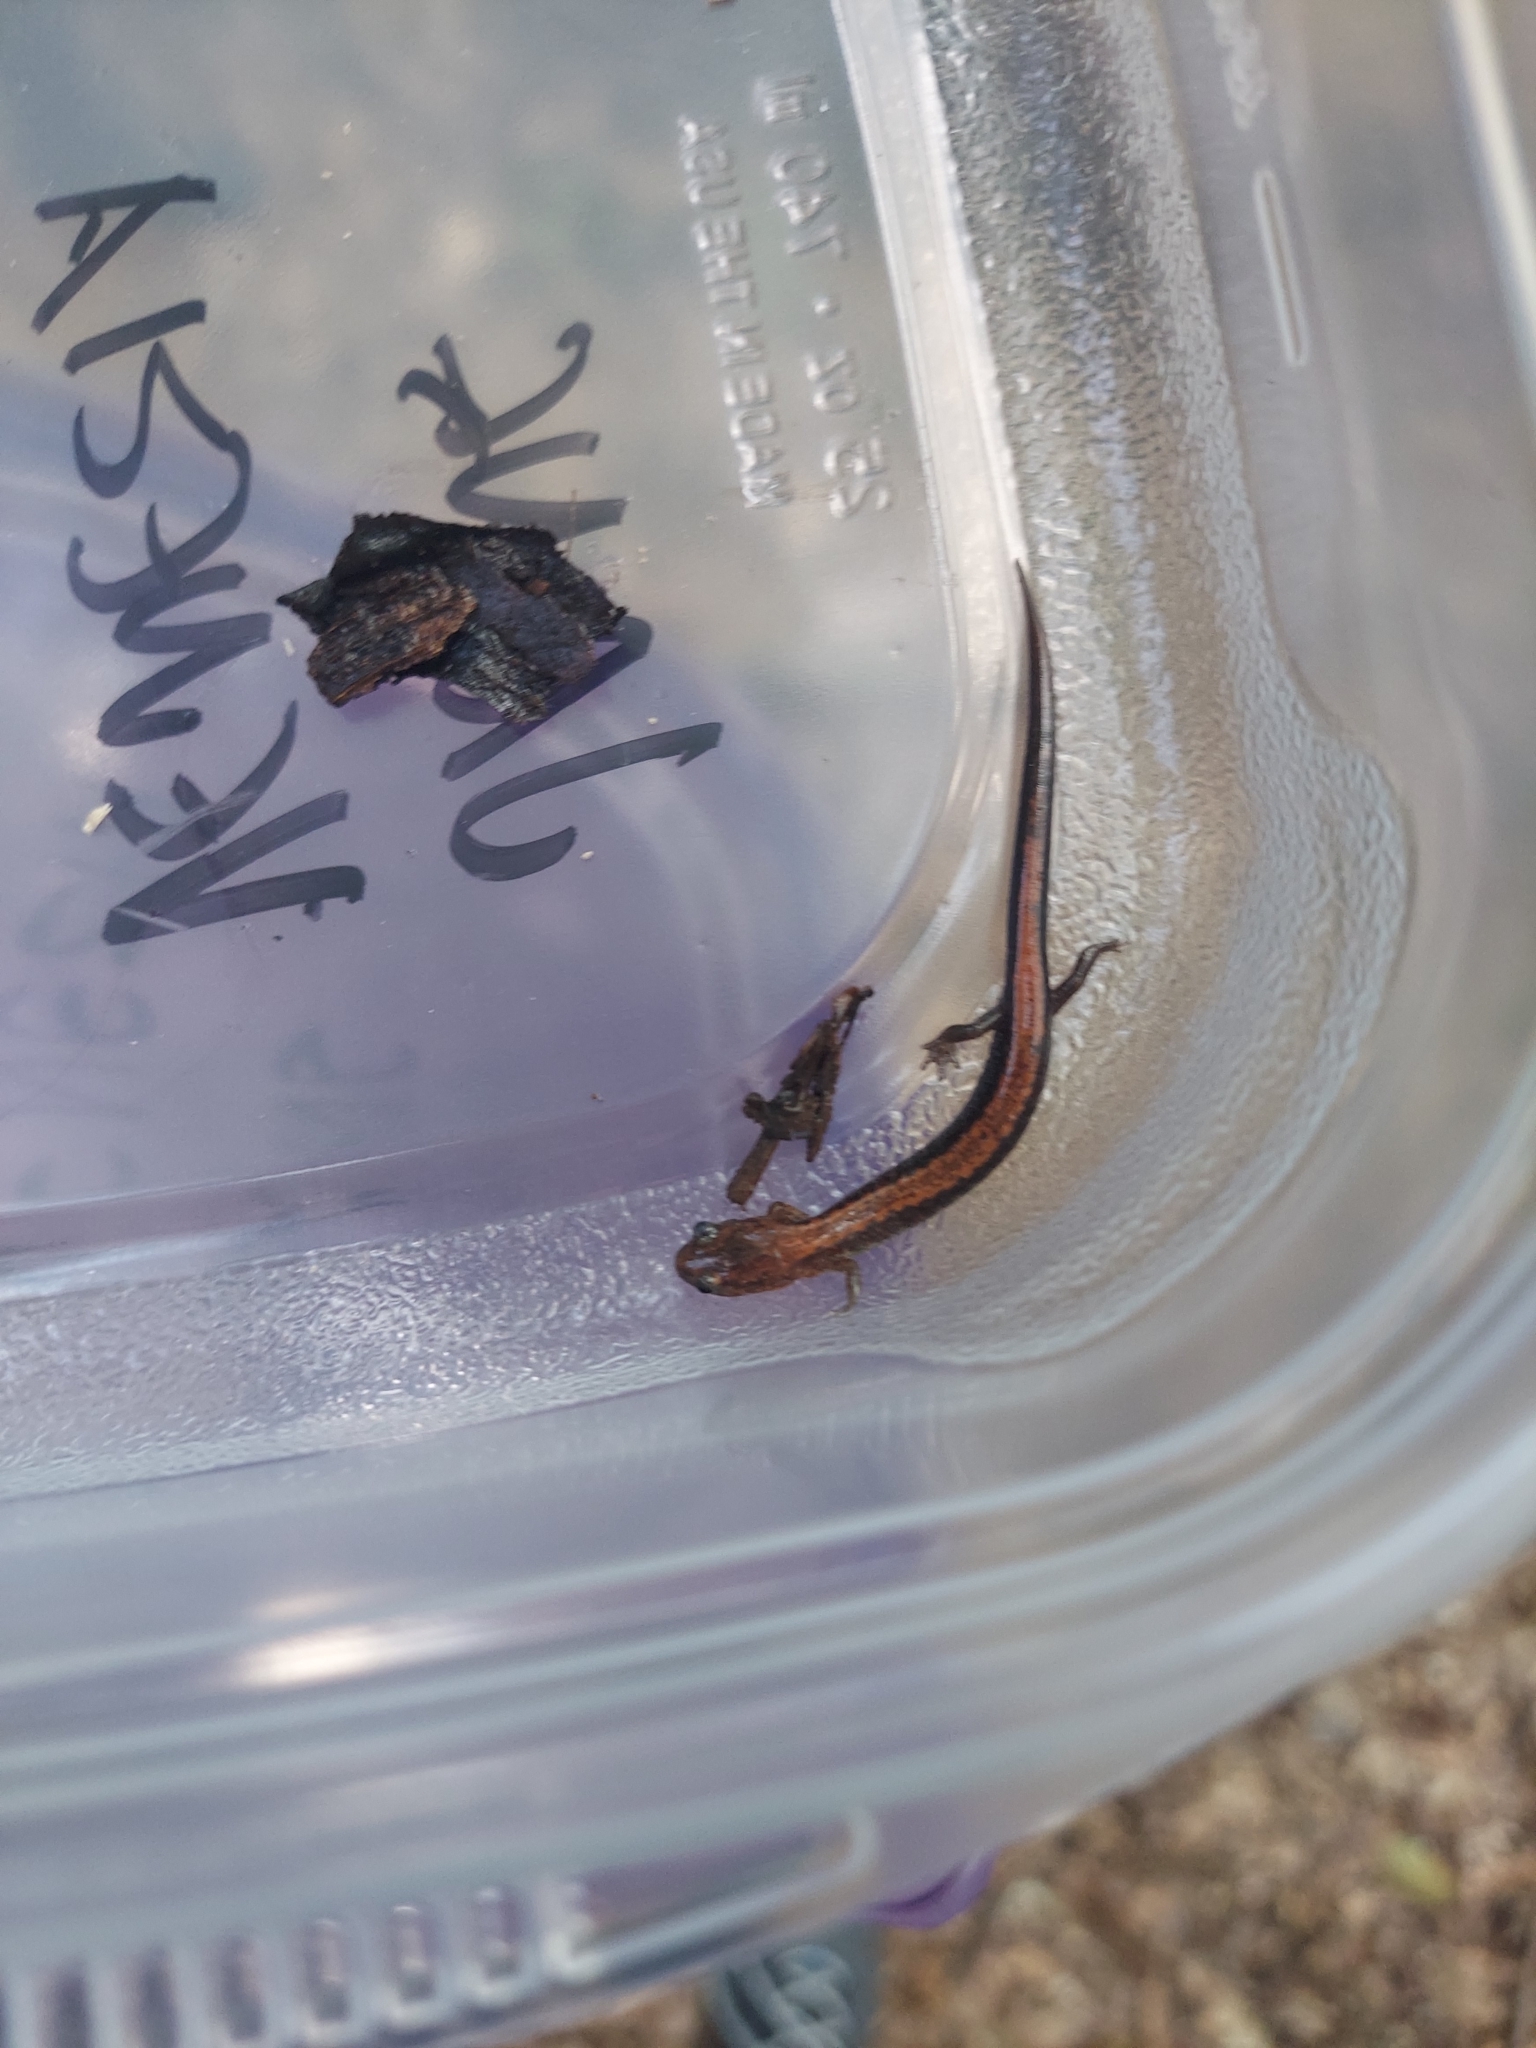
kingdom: Animalia
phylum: Chordata
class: Amphibia
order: Caudata
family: Plethodontidae
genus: Plethodon
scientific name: Plethodon cinereus
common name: Redback salamander
